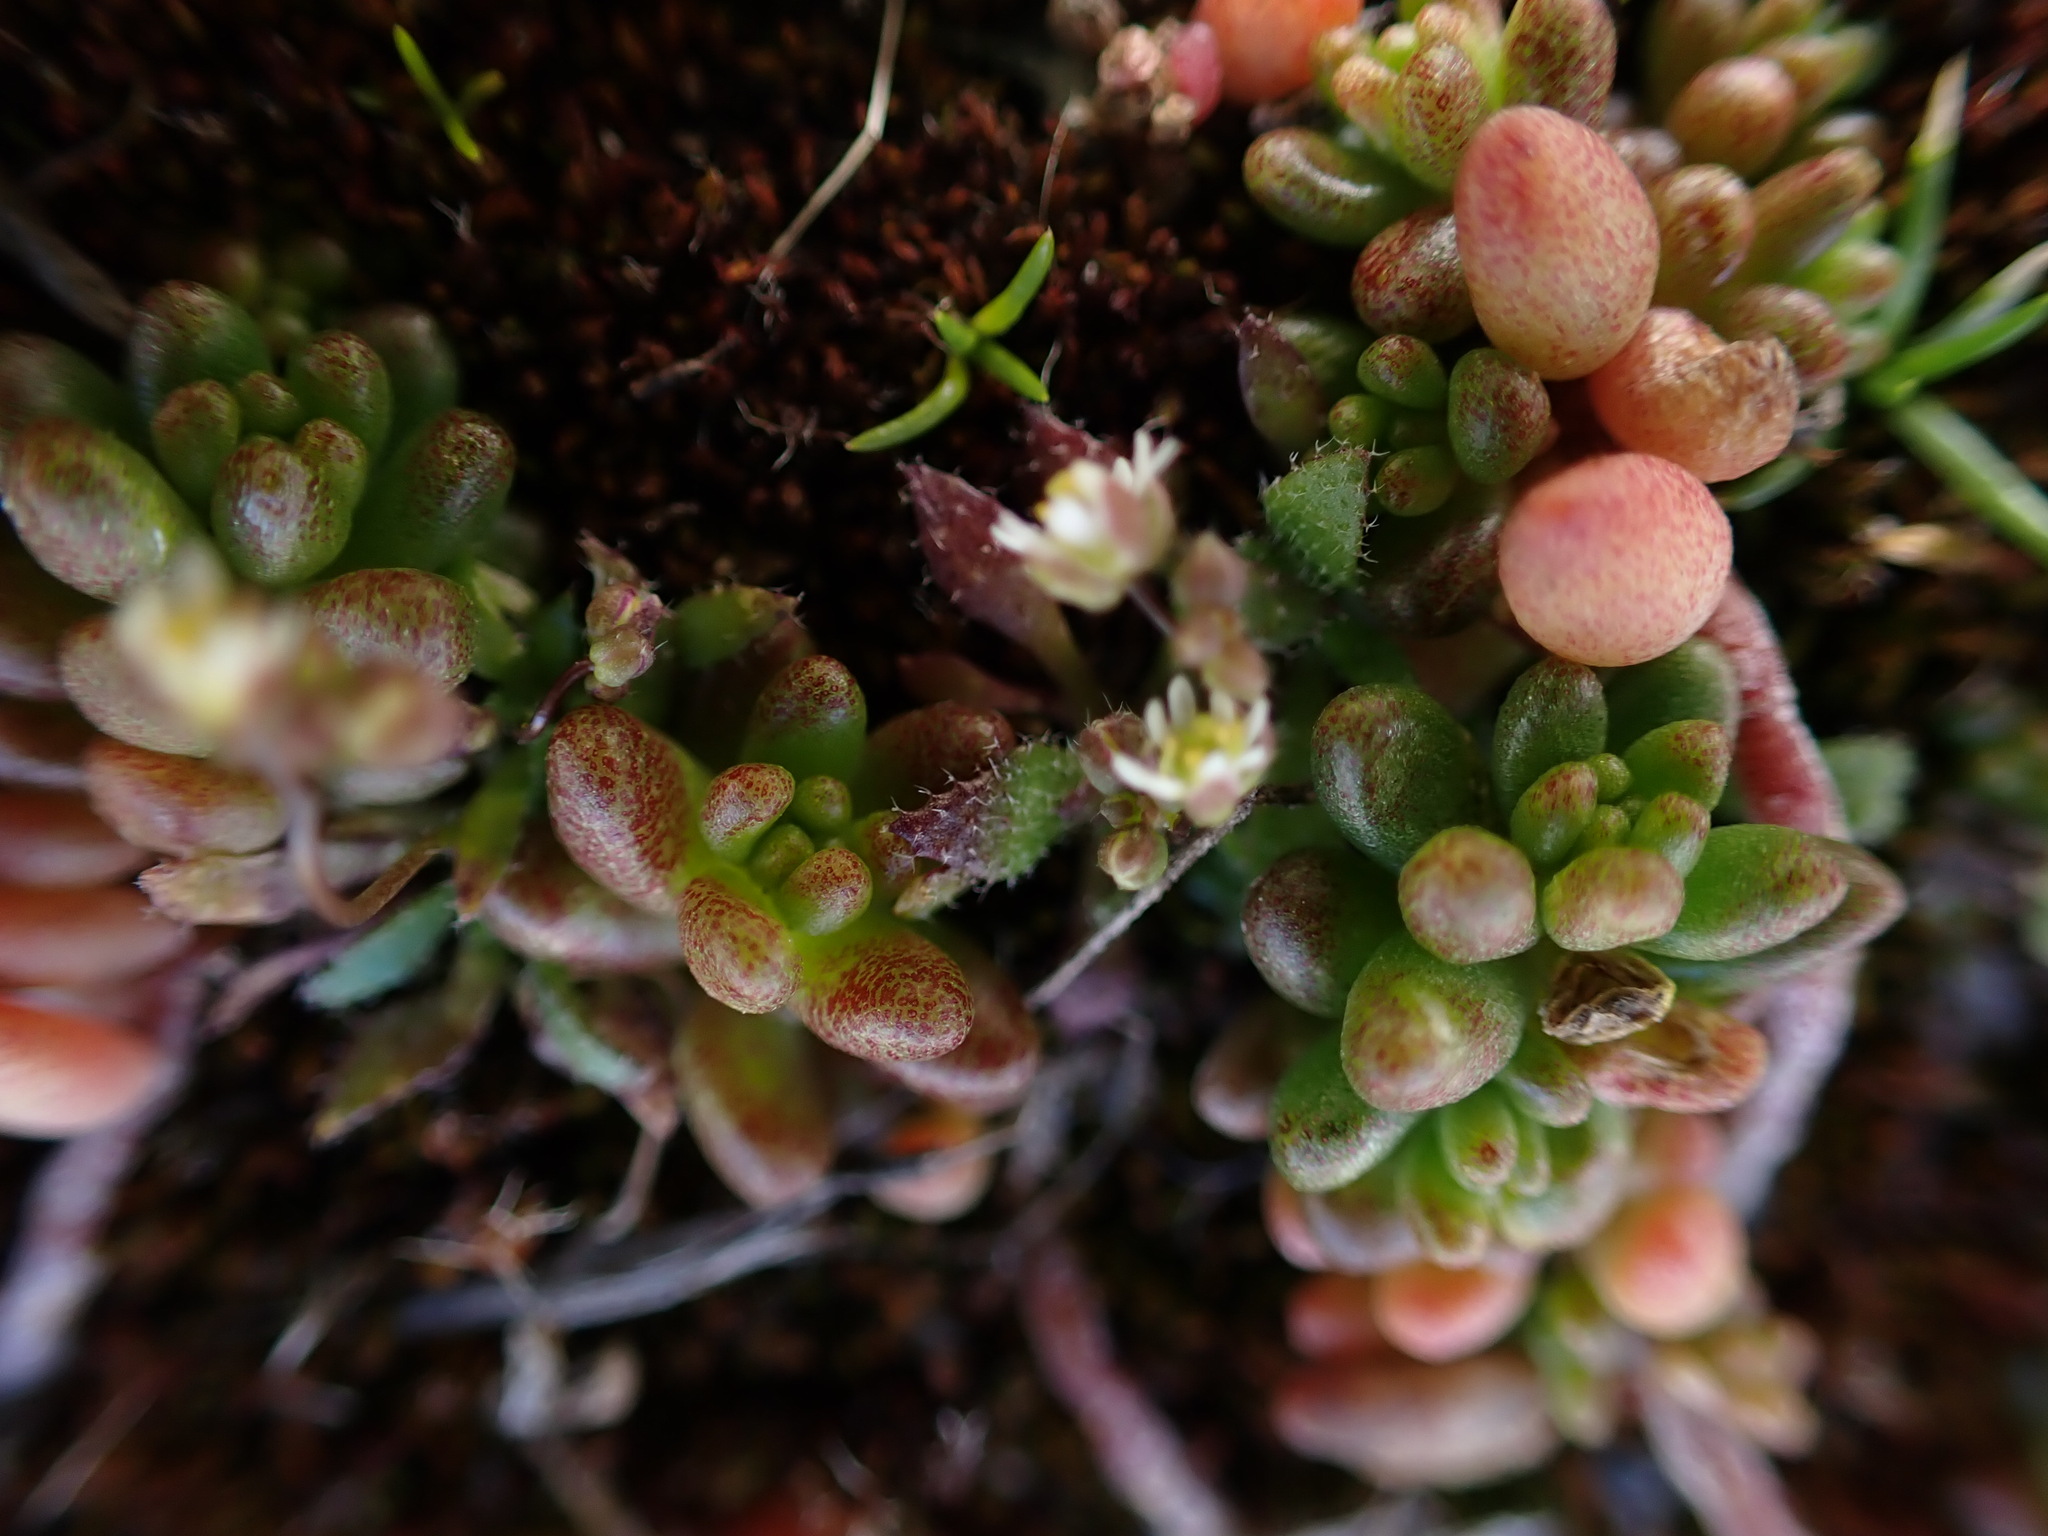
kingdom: Plantae
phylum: Tracheophyta
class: Magnoliopsida
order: Saxifragales
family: Crassulaceae
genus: Sedum
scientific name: Sedum album
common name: White stonecrop
